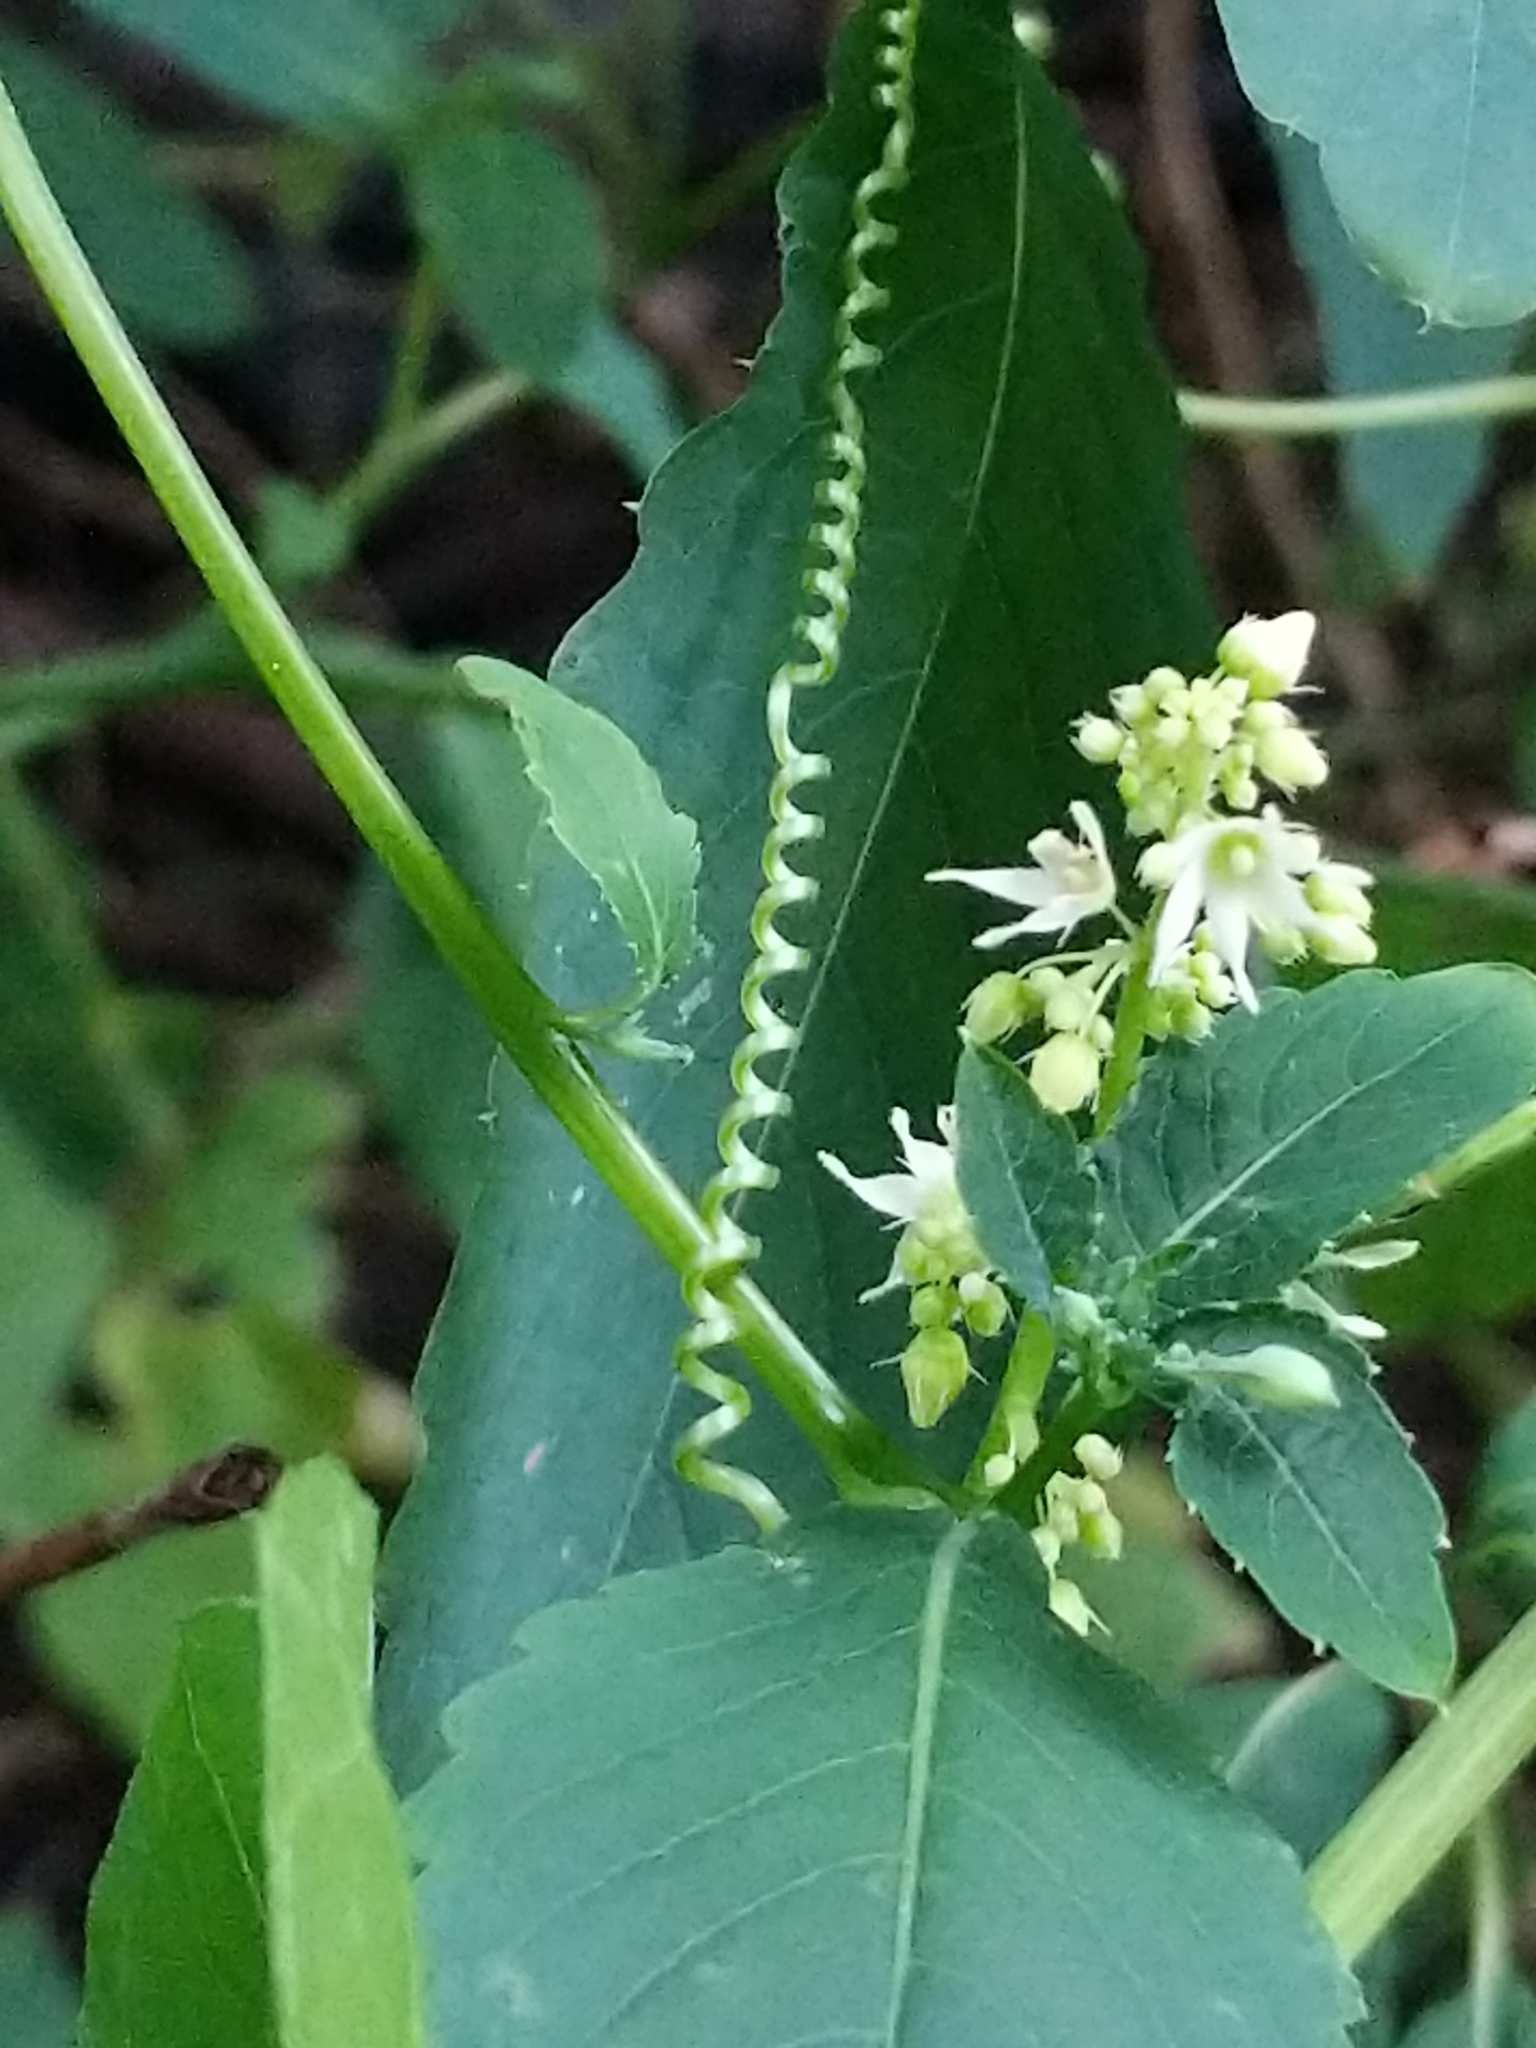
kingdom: Plantae
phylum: Tracheophyta
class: Magnoliopsida
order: Cucurbitales
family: Cucurbitaceae
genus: Echinocystis
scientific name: Echinocystis lobata
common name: Wild cucumber
